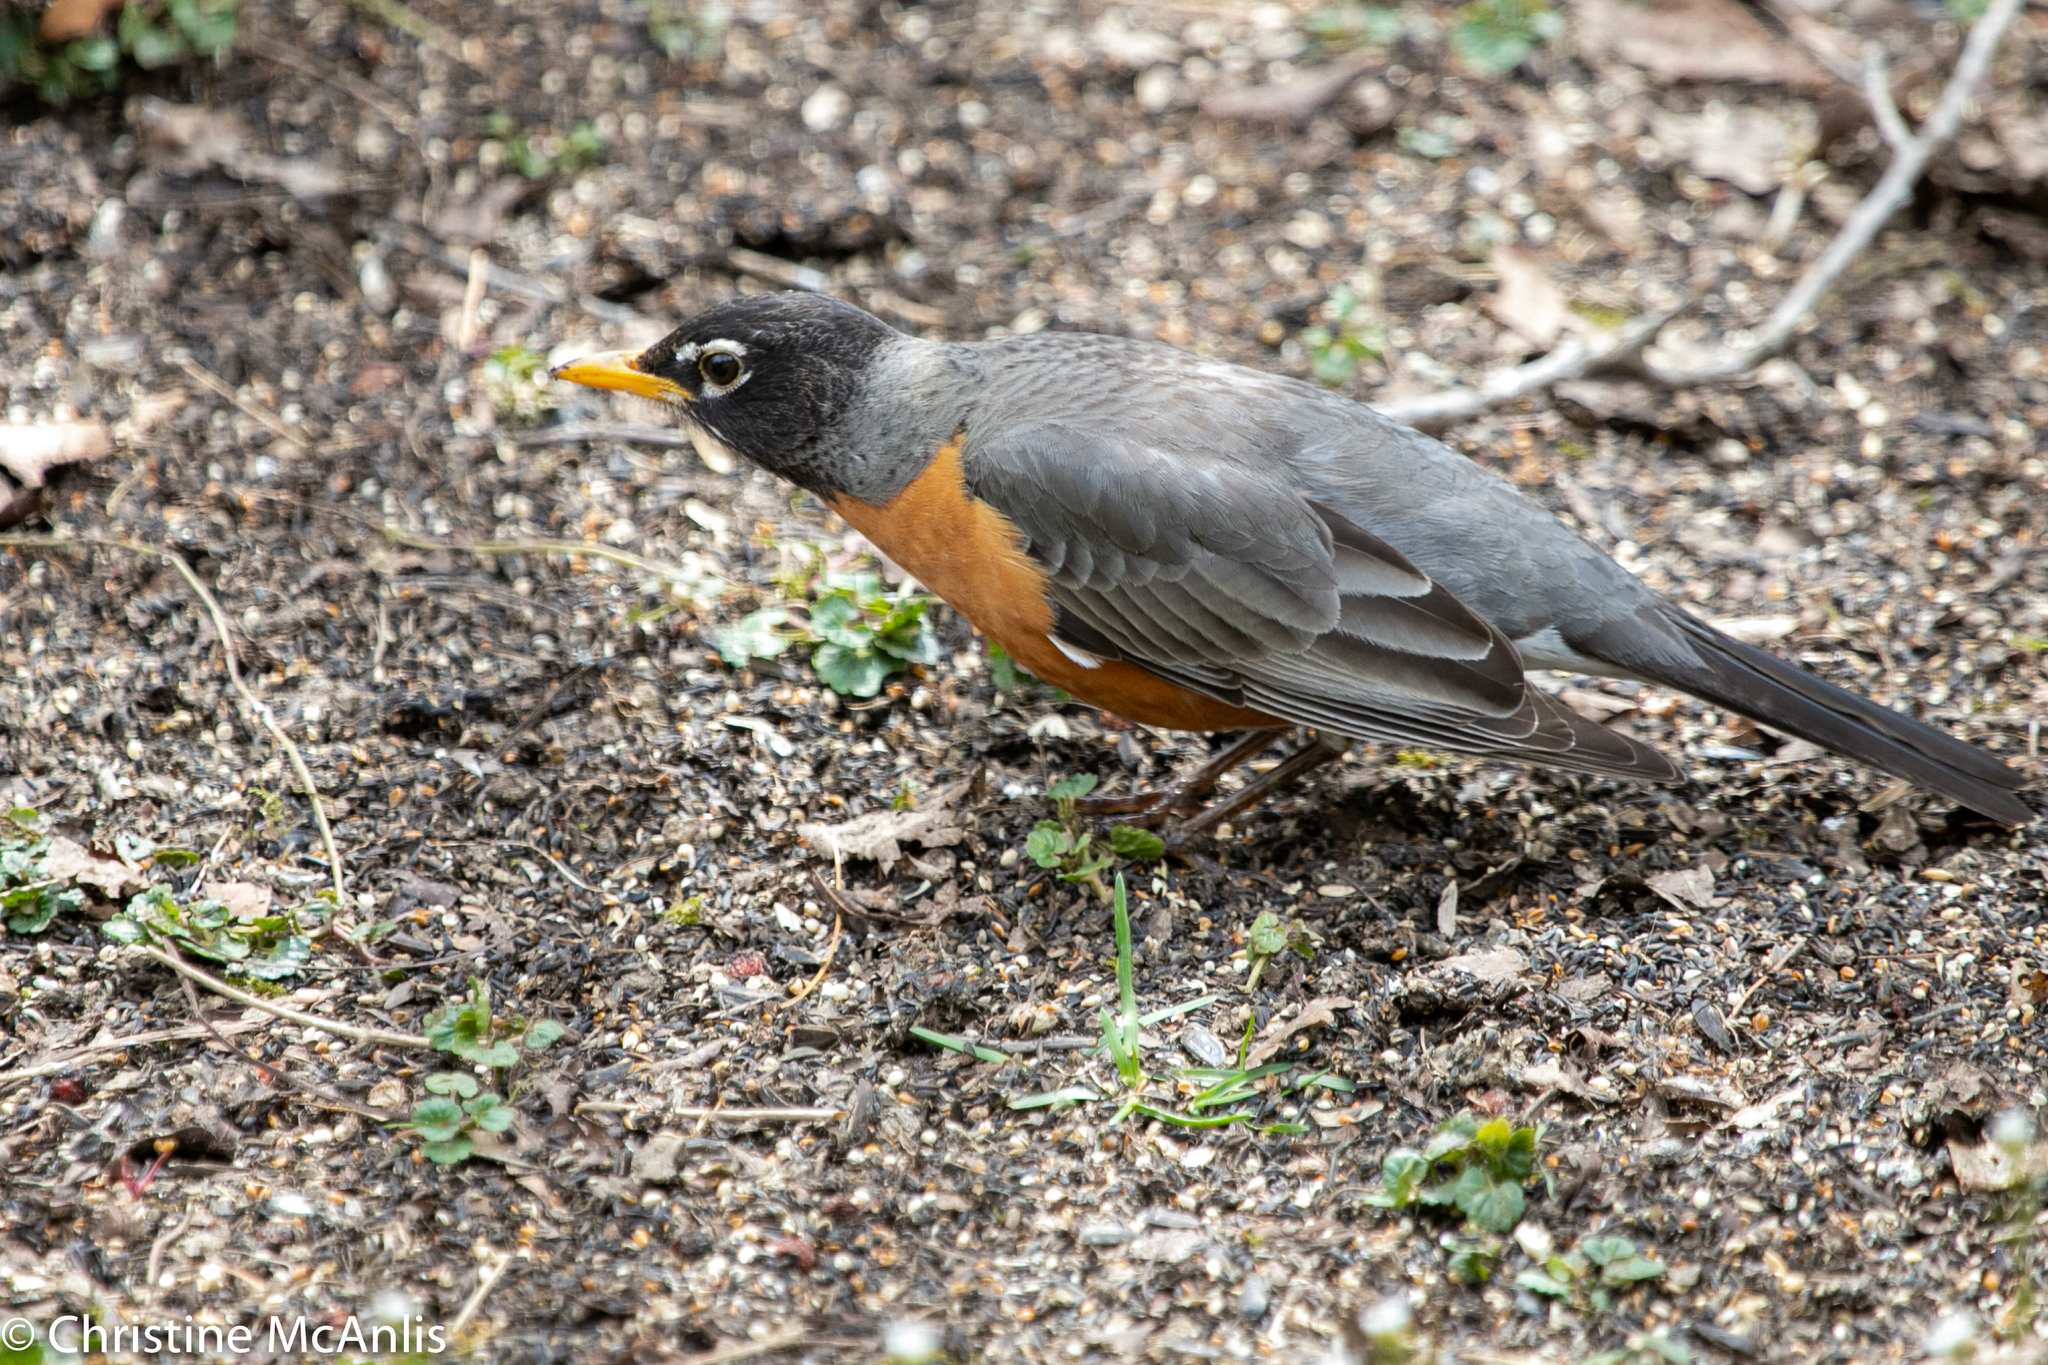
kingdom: Animalia
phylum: Chordata
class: Aves
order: Passeriformes
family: Turdidae
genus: Turdus
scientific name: Turdus migratorius
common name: American robin
